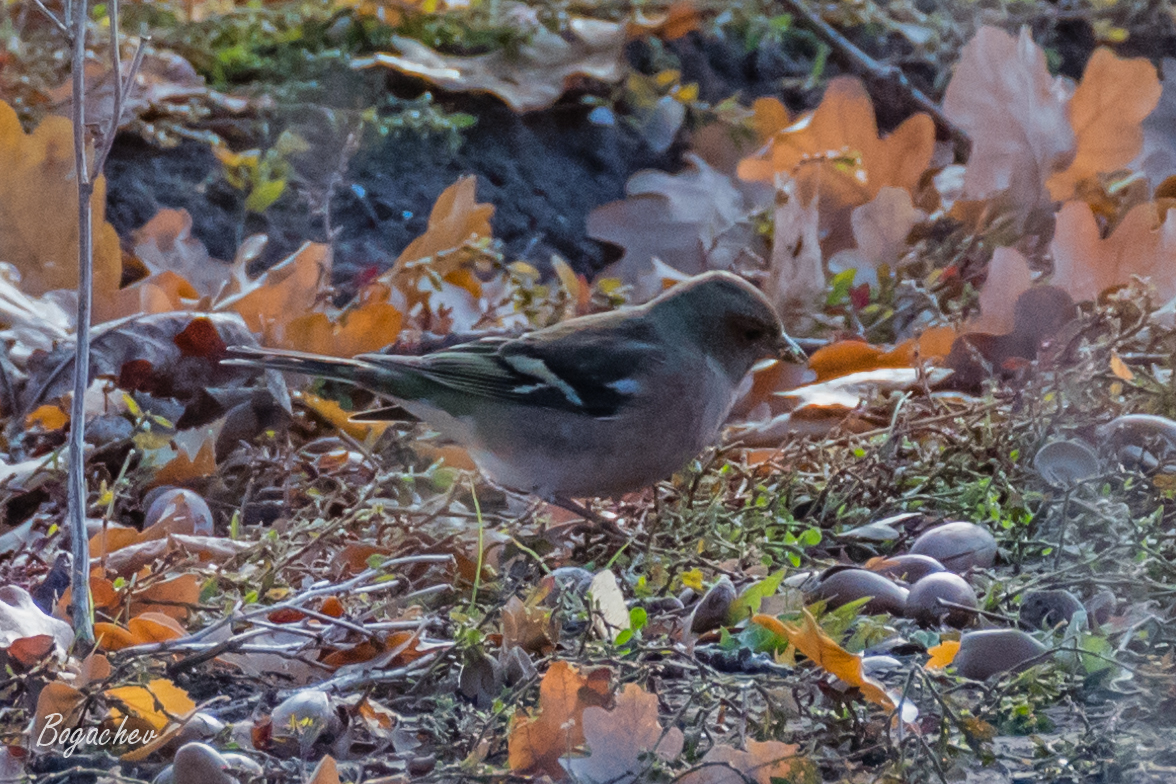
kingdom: Animalia
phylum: Chordata
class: Aves
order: Passeriformes
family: Fringillidae
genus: Fringilla
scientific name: Fringilla coelebs
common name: Common chaffinch
